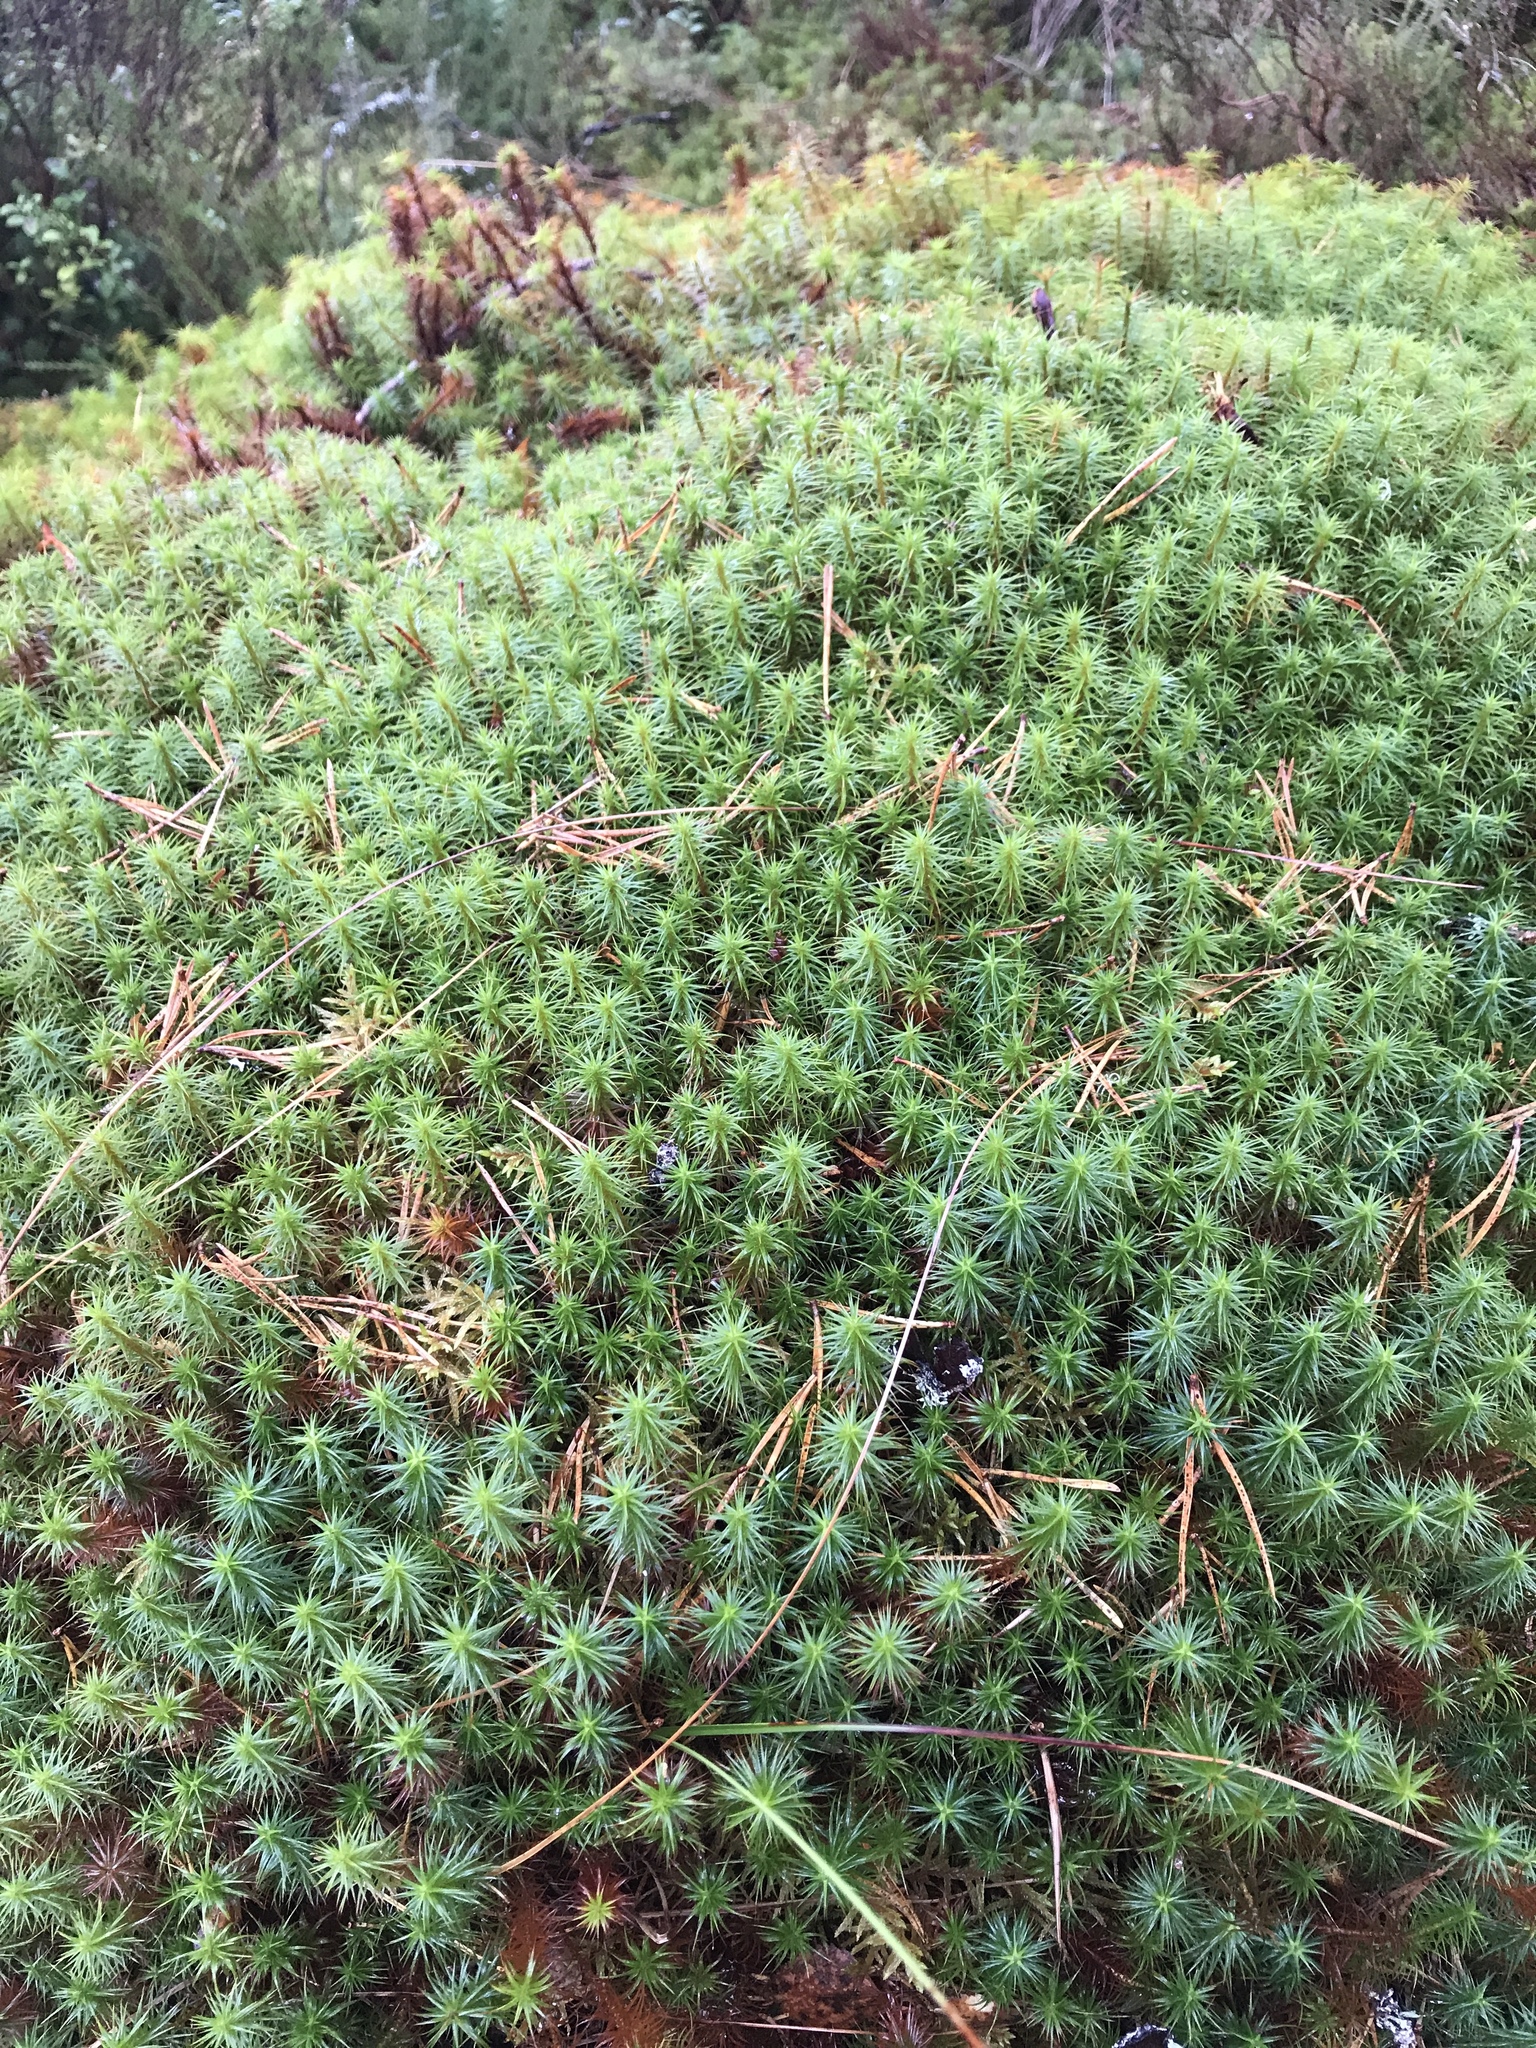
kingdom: Plantae
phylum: Bryophyta
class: Polytrichopsida
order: Polytrichales
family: Polytrichaceae
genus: Polytrichum
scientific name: Polytrichum commune
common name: Common haircap
